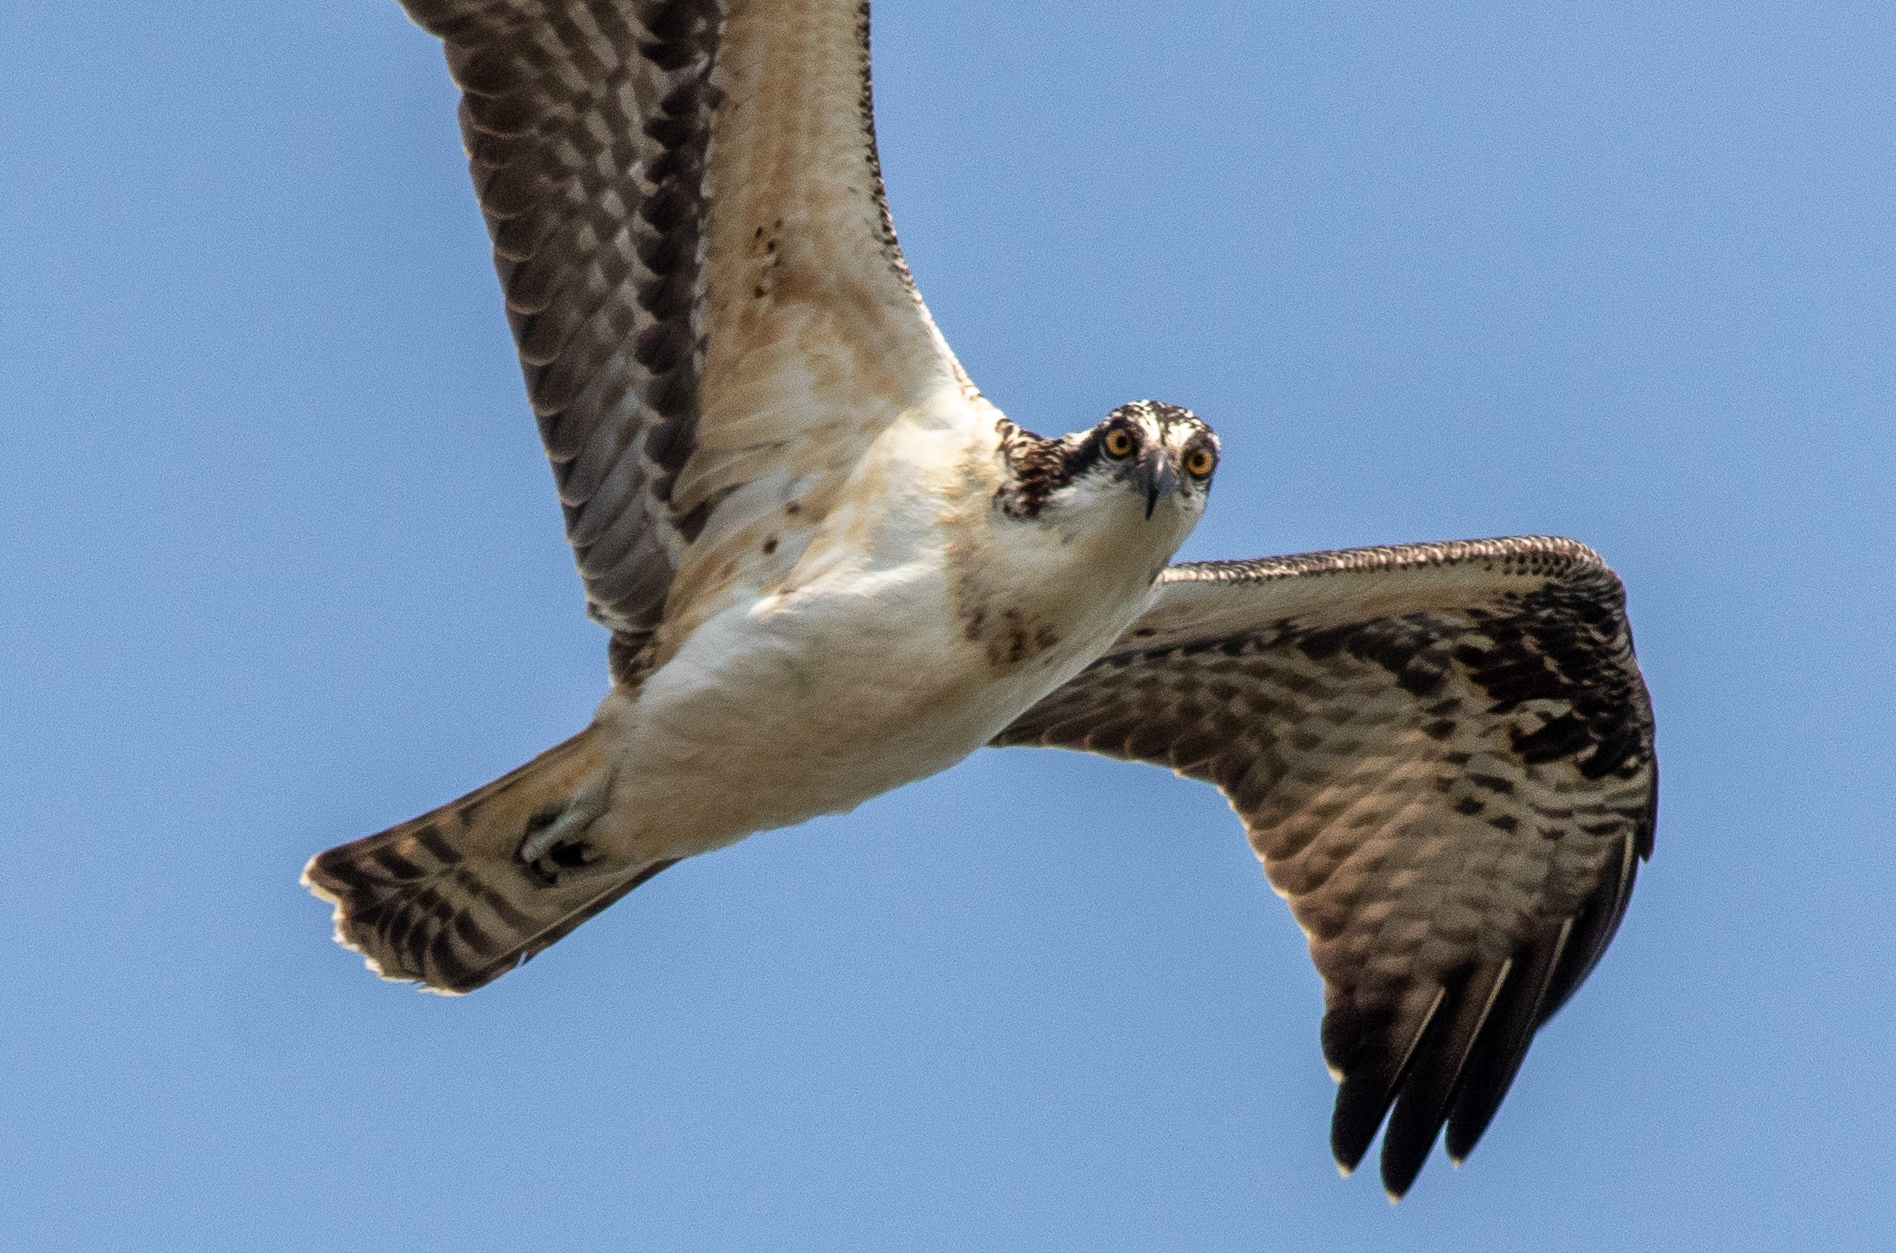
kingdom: Animalia
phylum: Chordata
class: Aves
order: Accipitriformes
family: Pandionidae
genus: Pandion
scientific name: Pandion haliaetus
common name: Osprey
